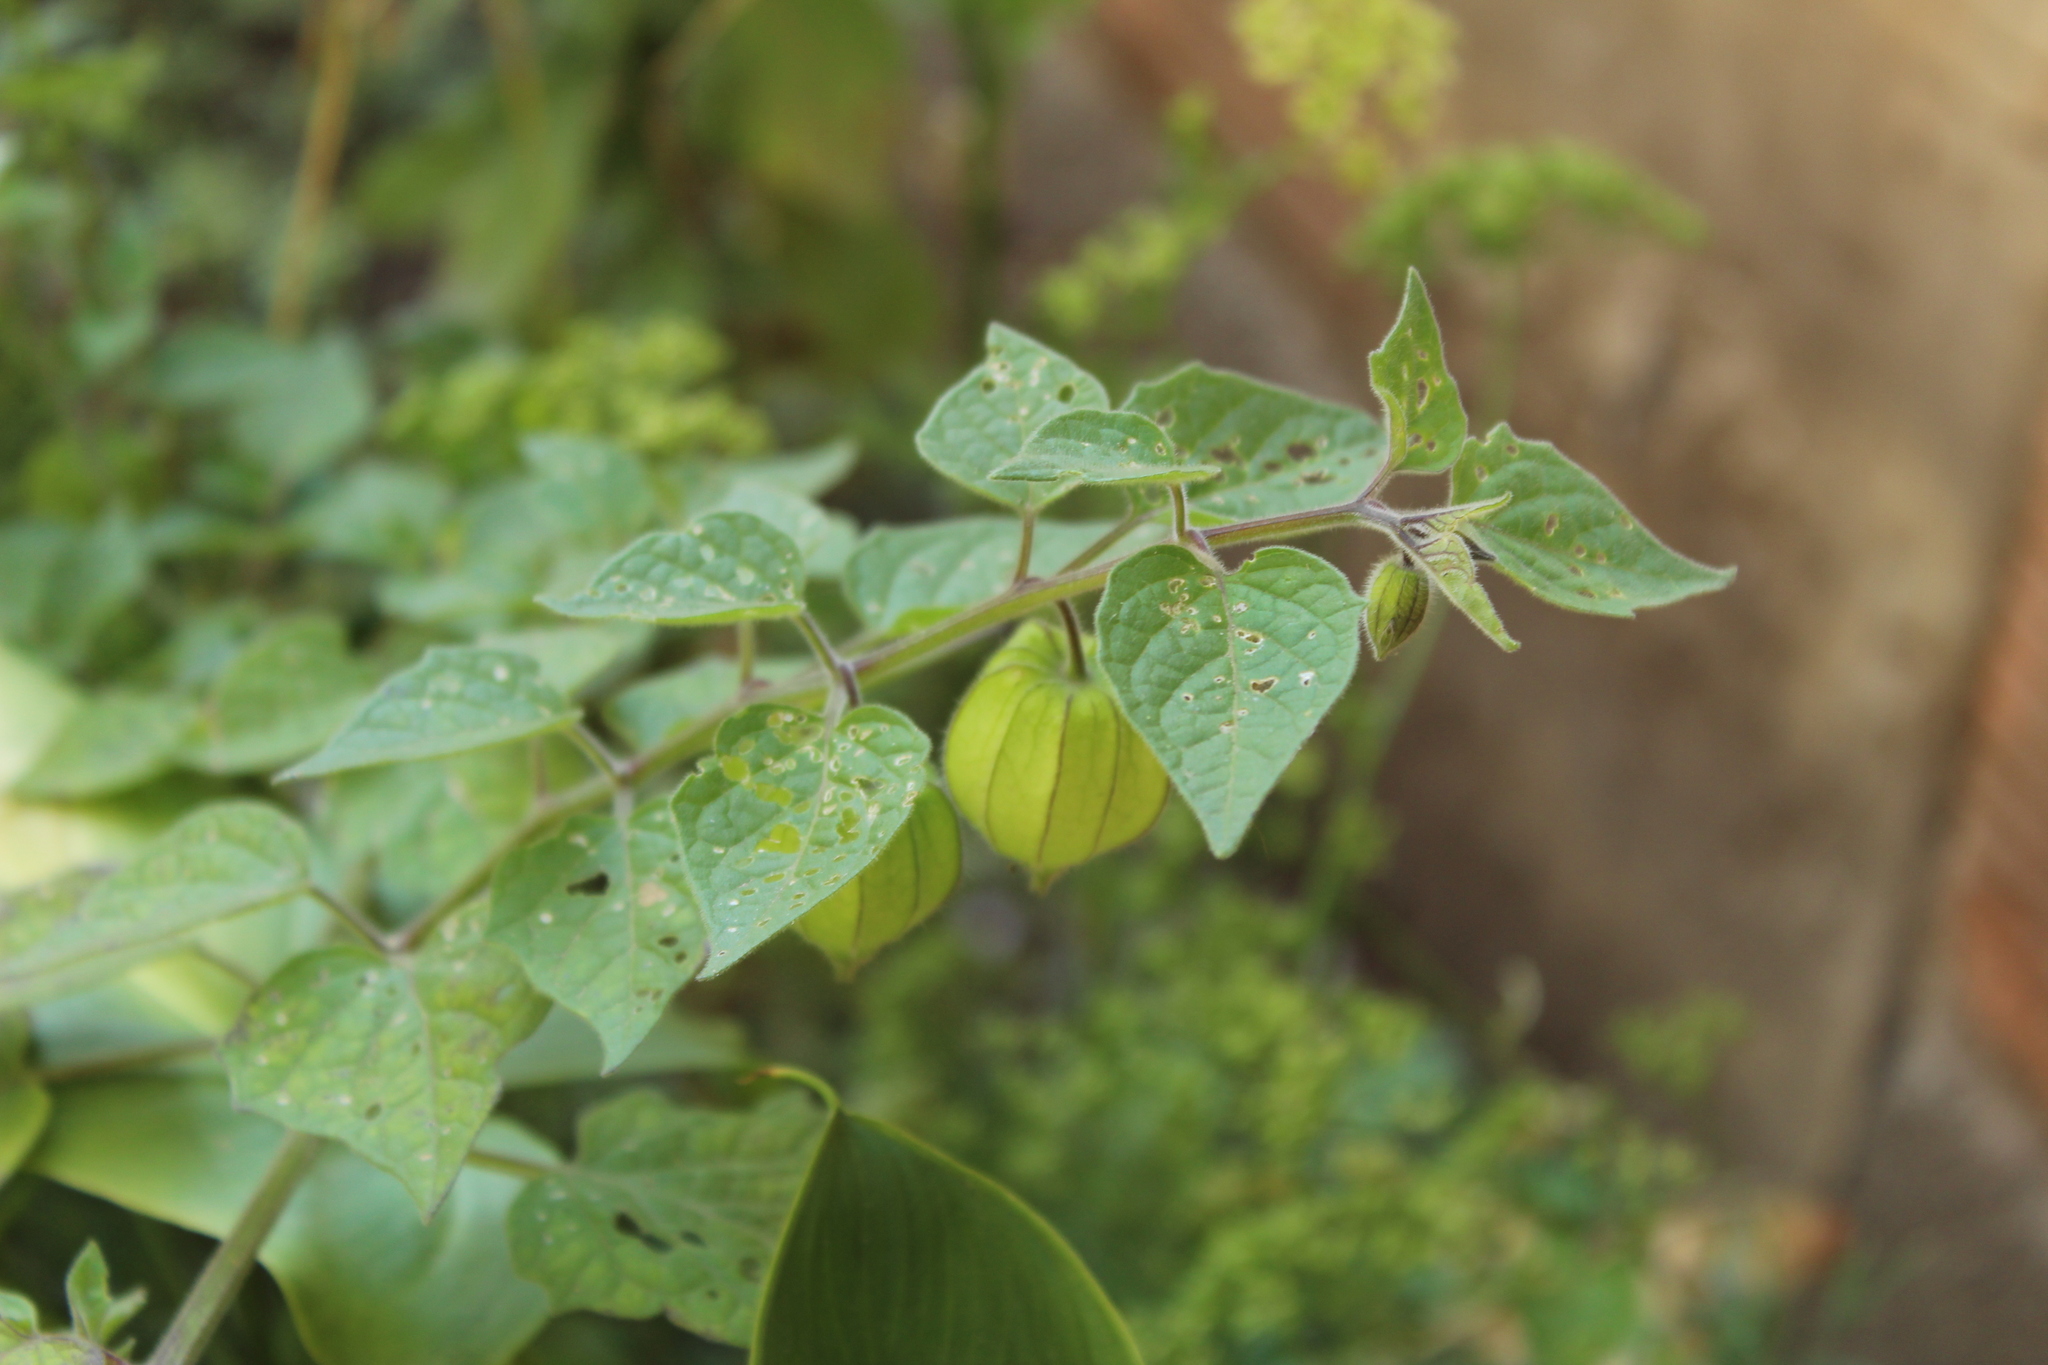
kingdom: Plantae
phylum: Tracheophyta
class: Magnoliopsida
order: Solanales
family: Solanaceae
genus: Physalis
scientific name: Physalis peruviana
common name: Cape-gooseberry
